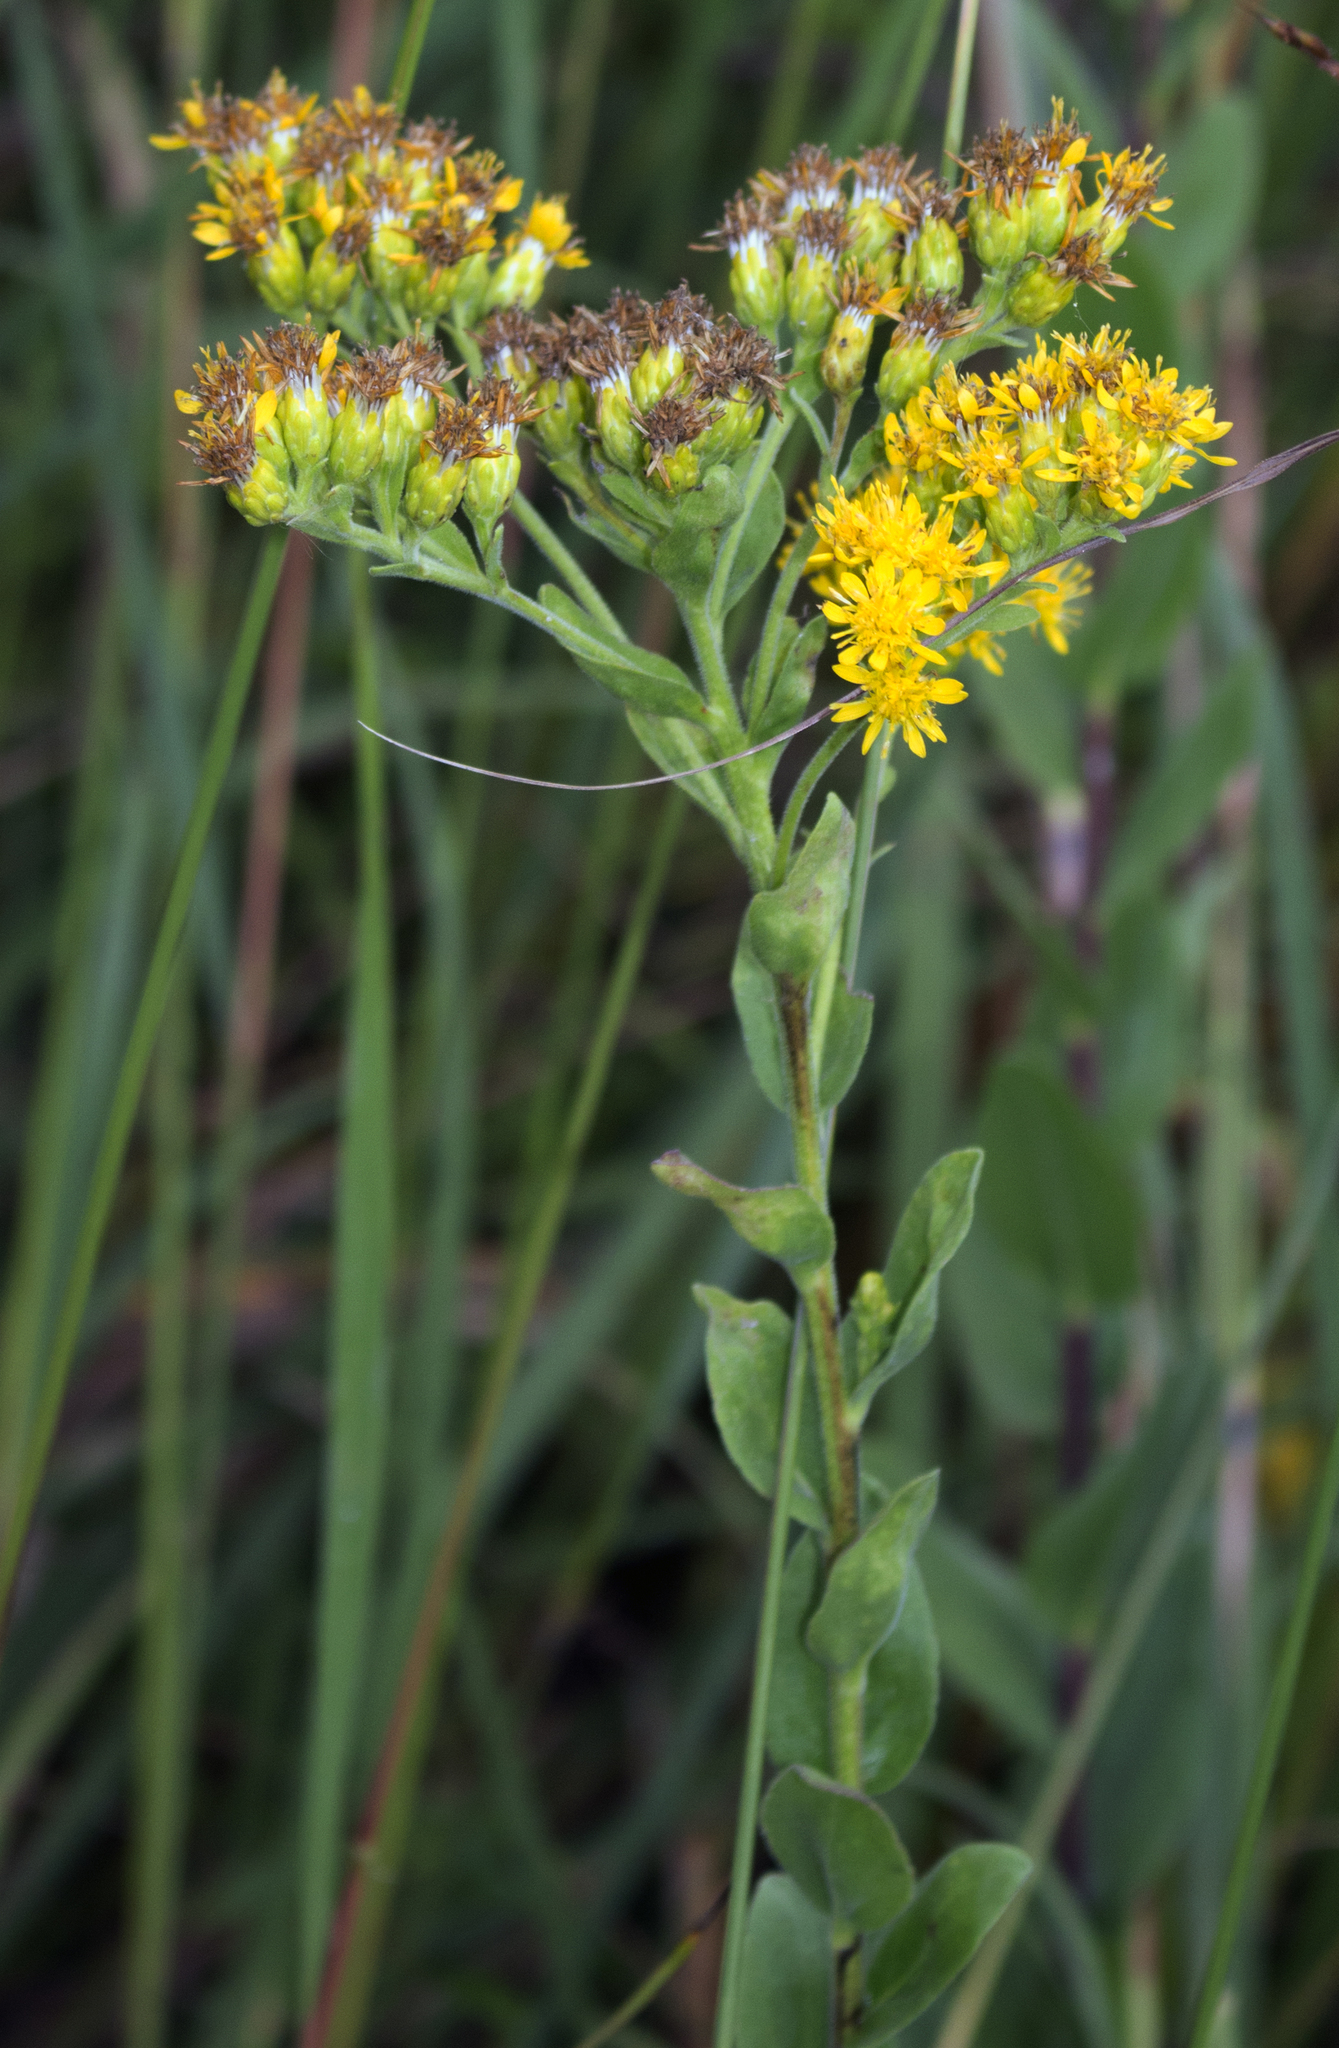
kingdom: Plantae
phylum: Tracheophyta
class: Magnoliopsida
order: Asterales
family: Asteraceae
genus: Solidago
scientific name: Solidago rigida
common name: Rigid goldenrod
